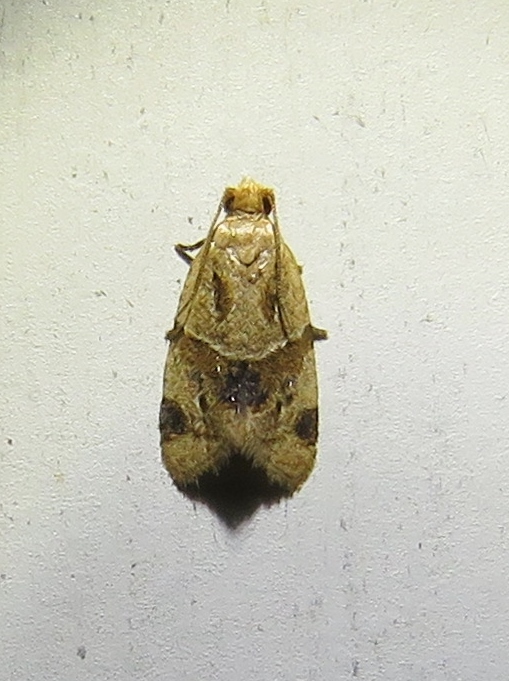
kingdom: Animalia
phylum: Arthropoda
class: Insecta
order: Lepidoptera
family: Tortricidae
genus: Clepsis
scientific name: Clepsis peritana
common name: Garden tortrix
